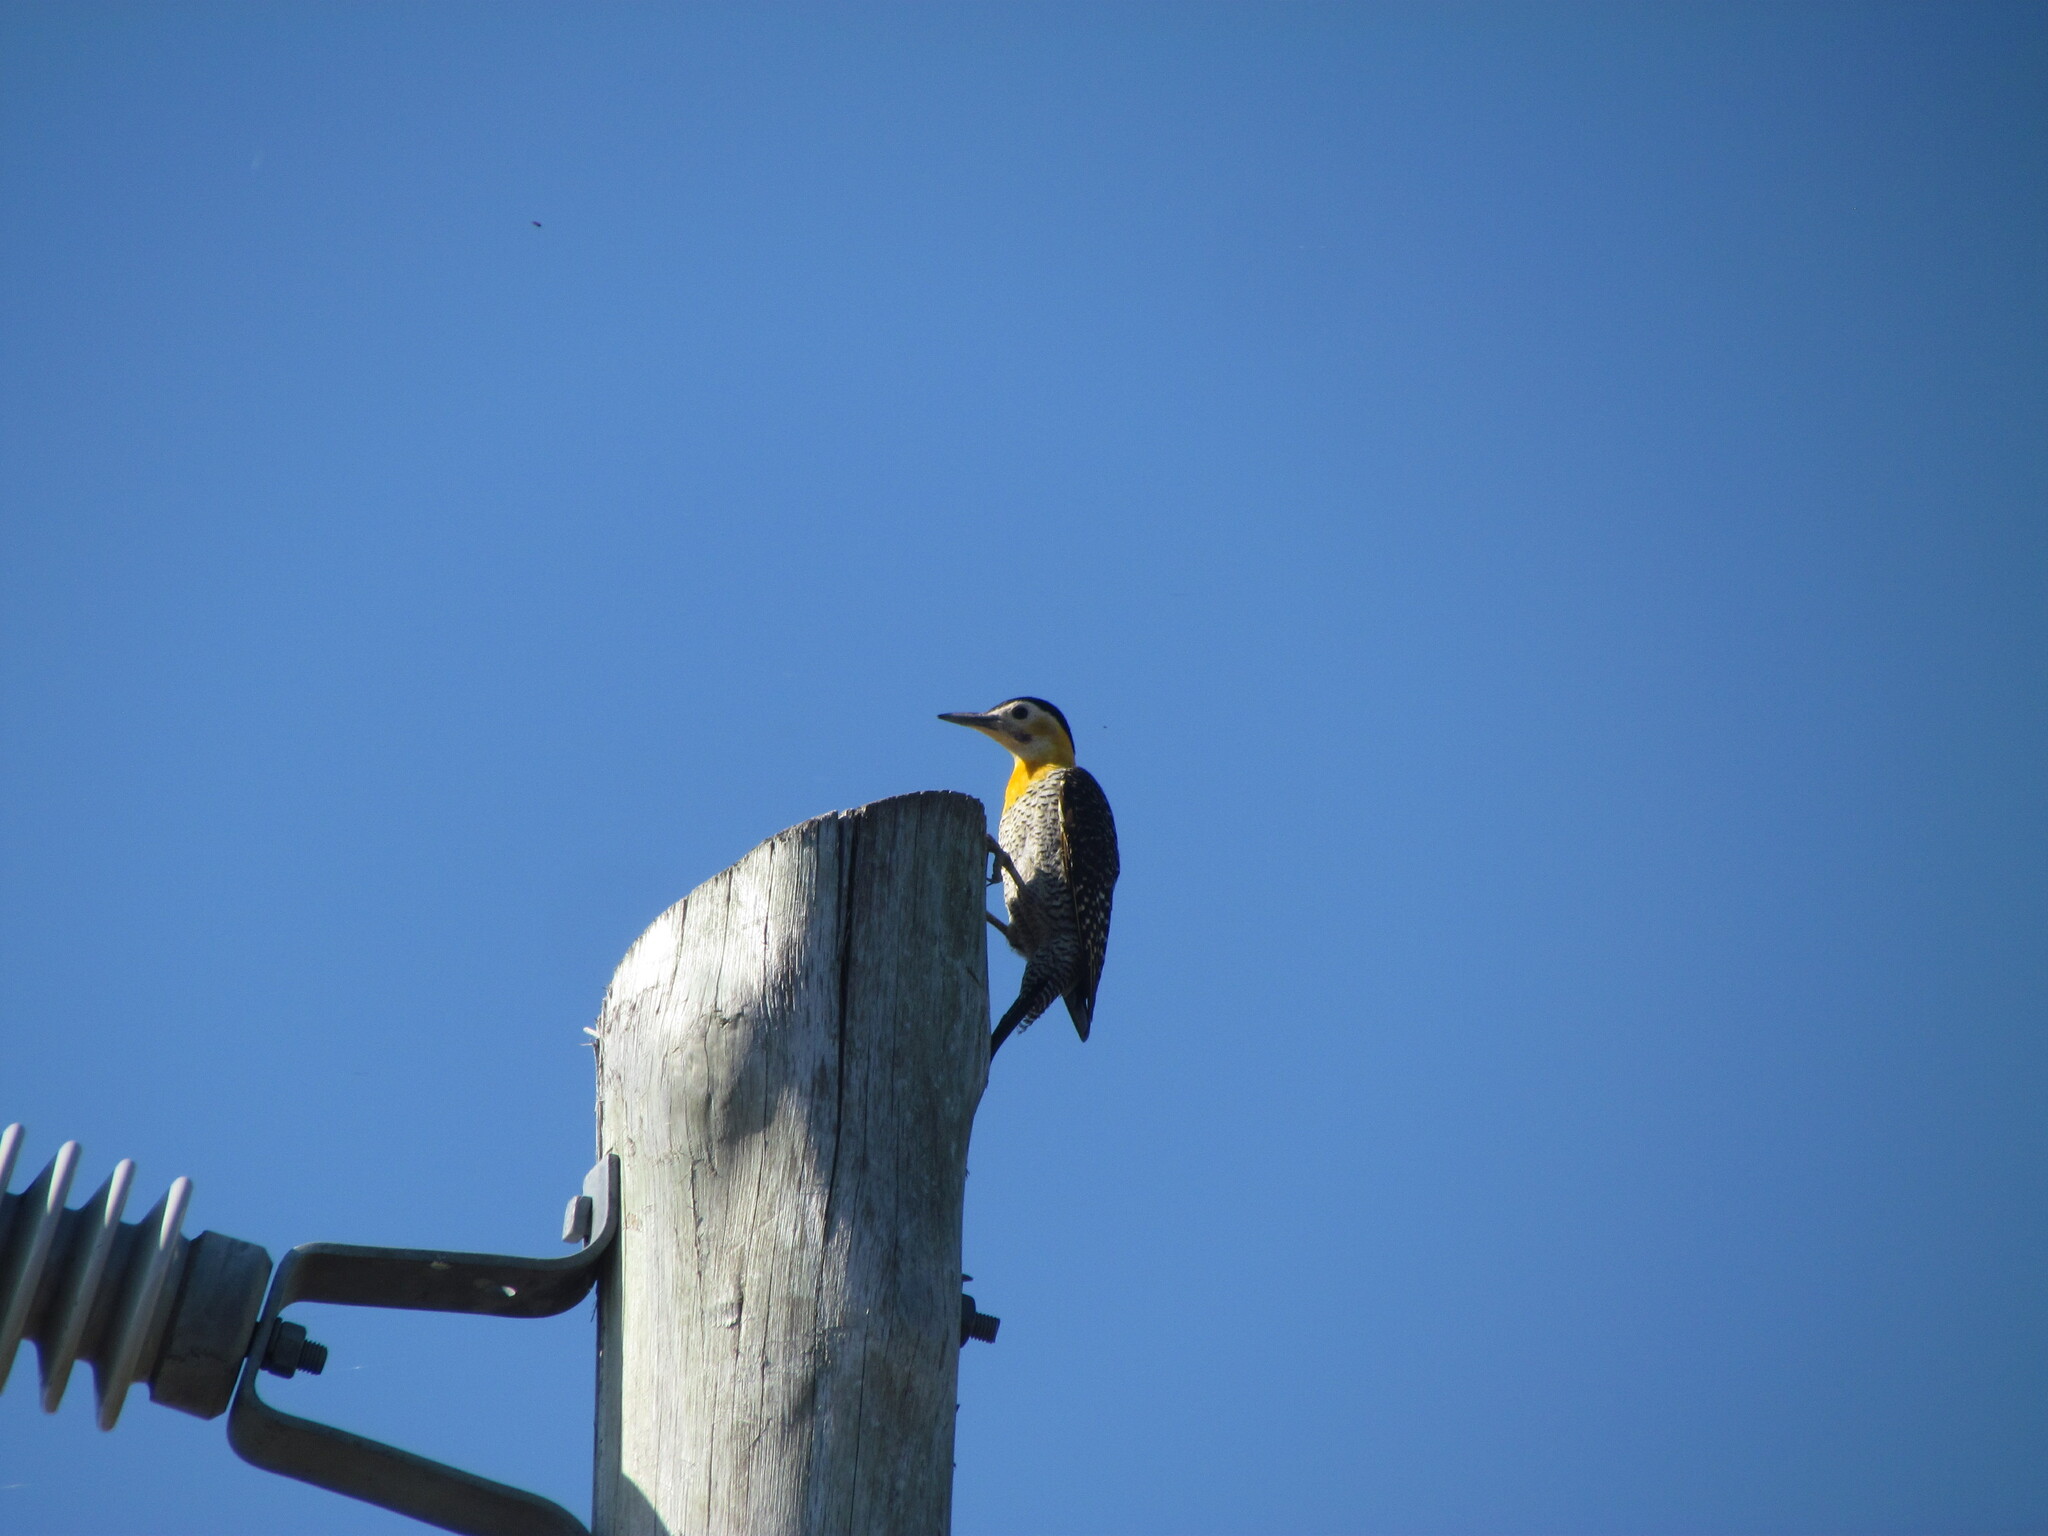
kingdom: Animalia
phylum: Chordata
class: Aves
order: Piciformes
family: Picidae
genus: Colaptes
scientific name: Colaptes campestris
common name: Campo flicker
